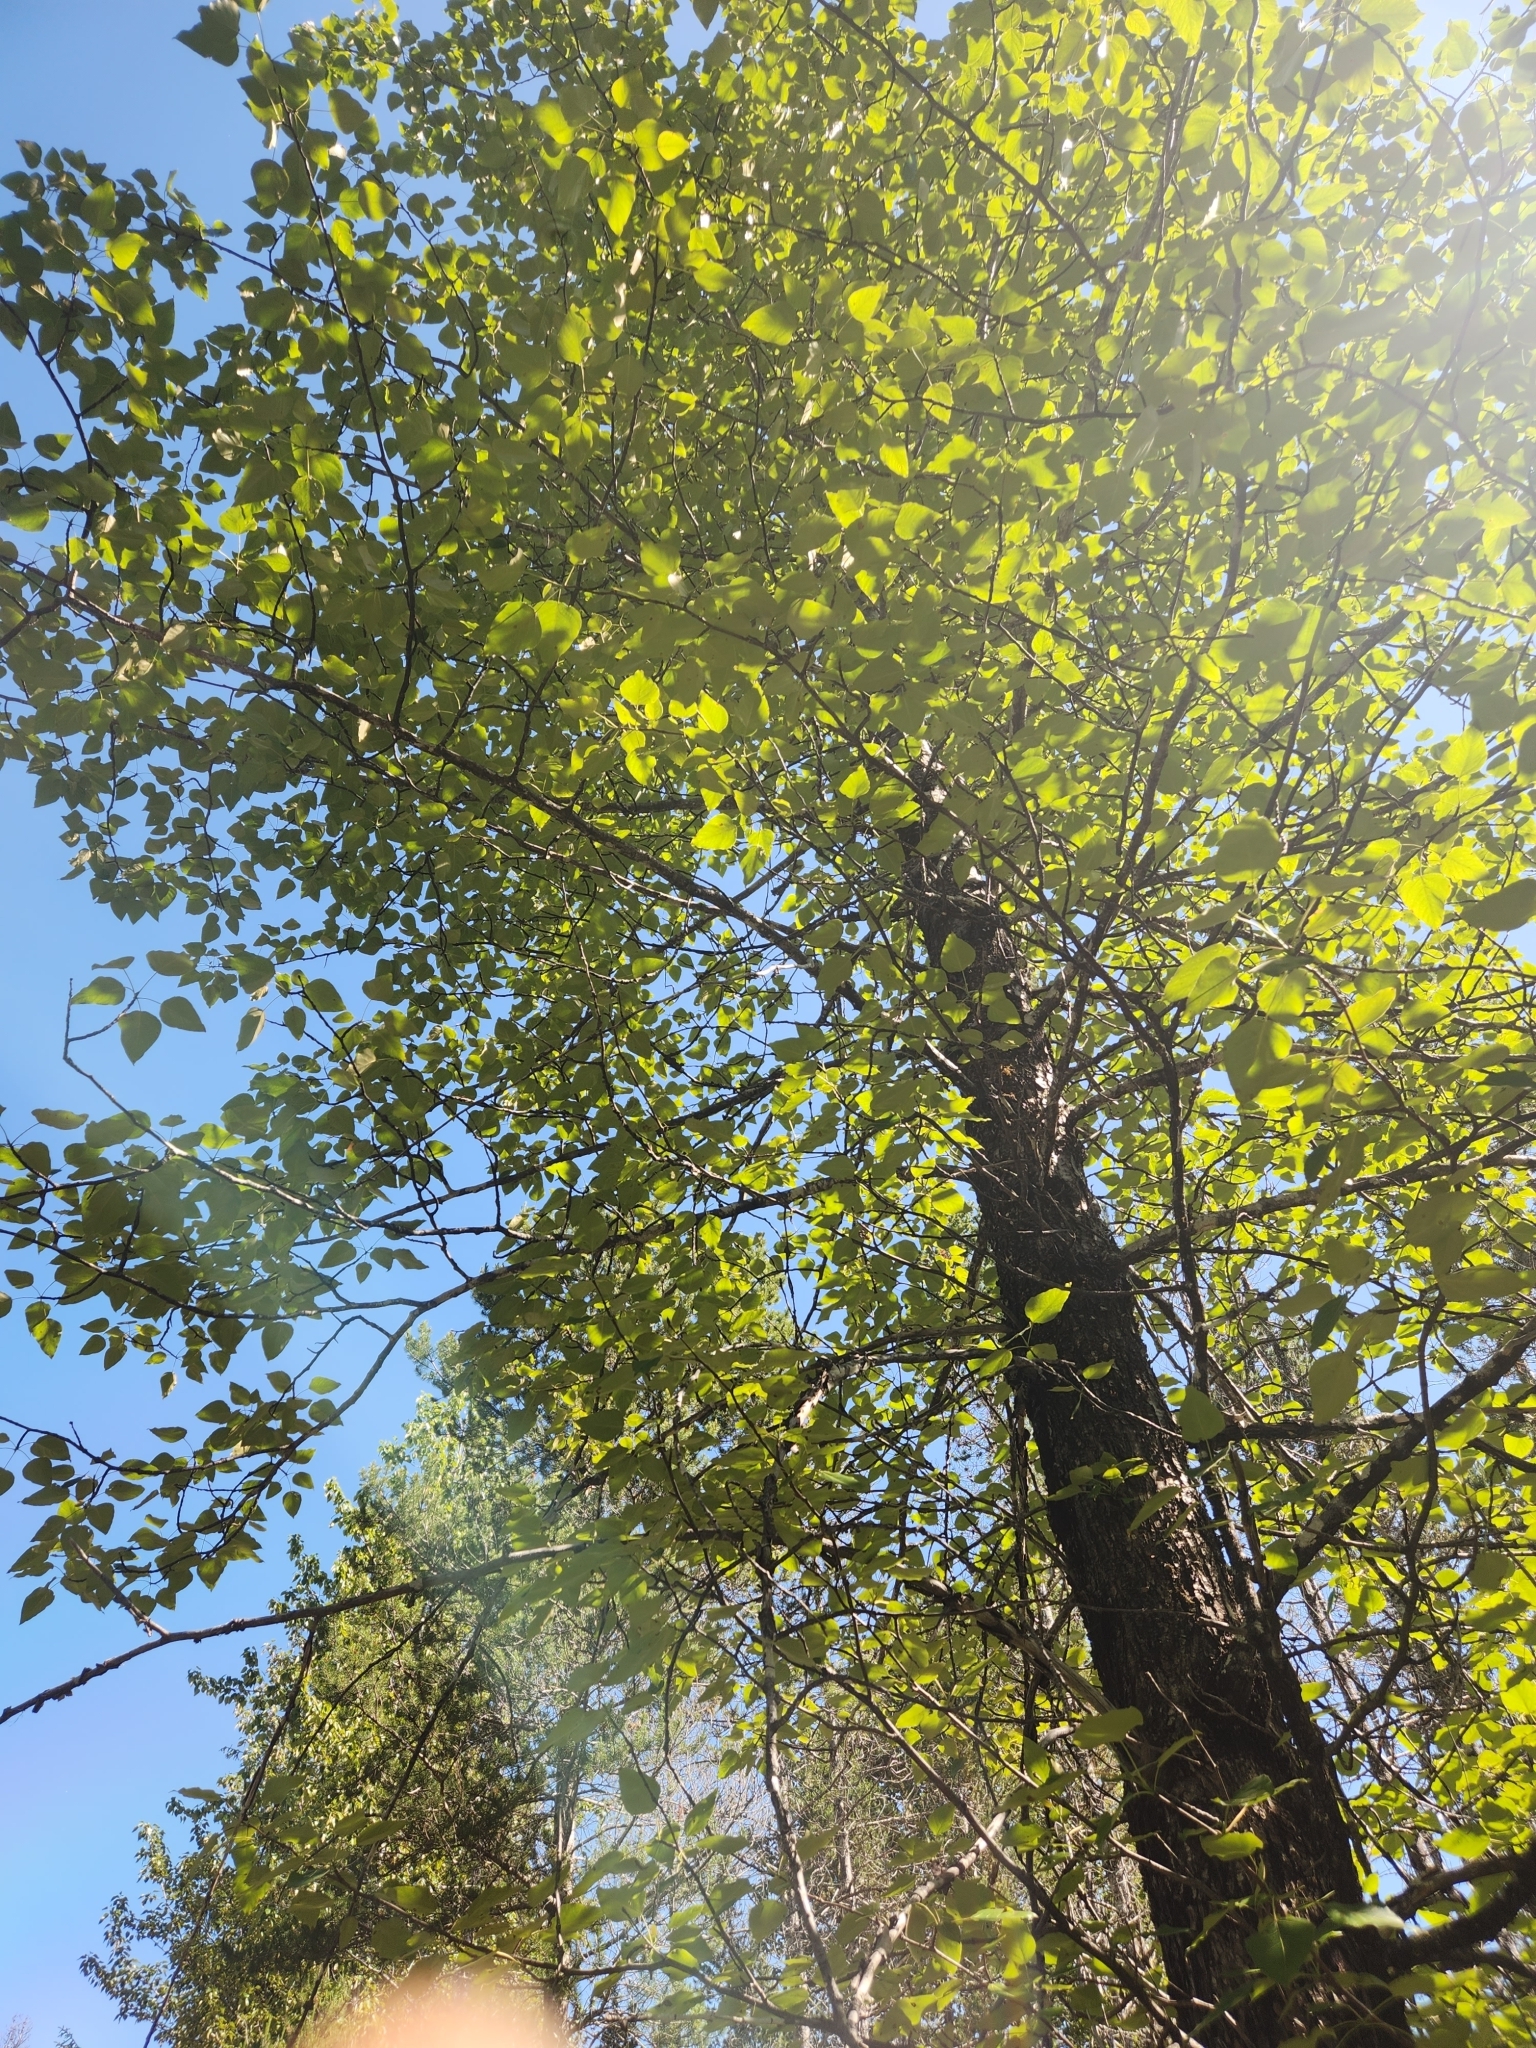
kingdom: Plantae
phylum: Tracheophyta
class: Magnoliopsida
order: Malpighiales
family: Salicaceae
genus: Populus
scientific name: Populus trichocarpa
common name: Black cottonwood
